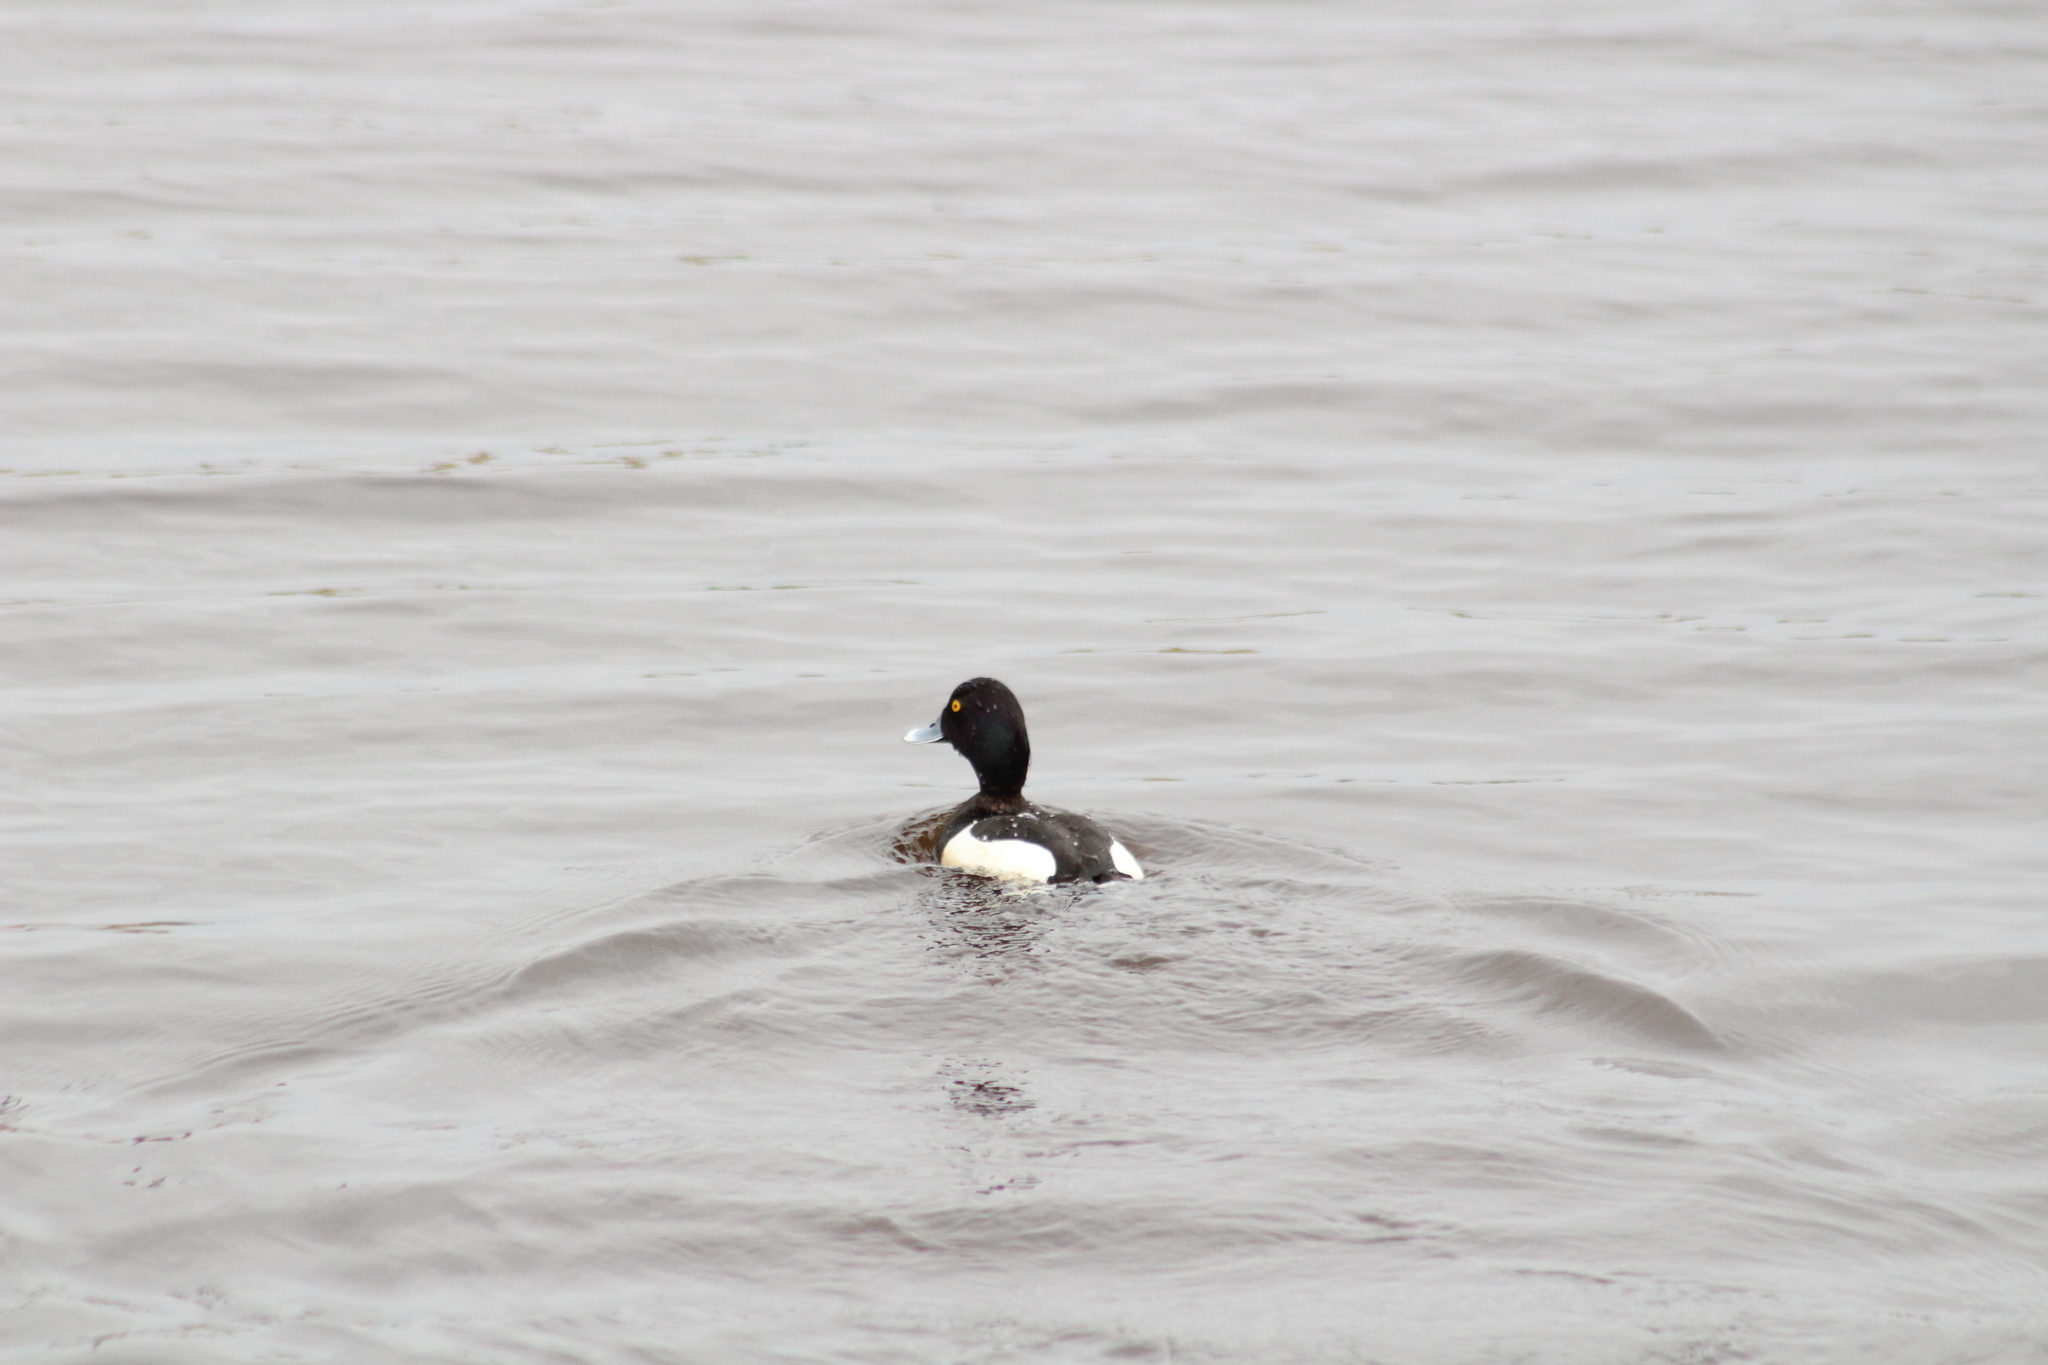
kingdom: Animalia
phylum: Chordata
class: Aves
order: Anseriformes
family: Anatidae
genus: Aythya
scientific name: Aythya fuligula
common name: Tufted duck
